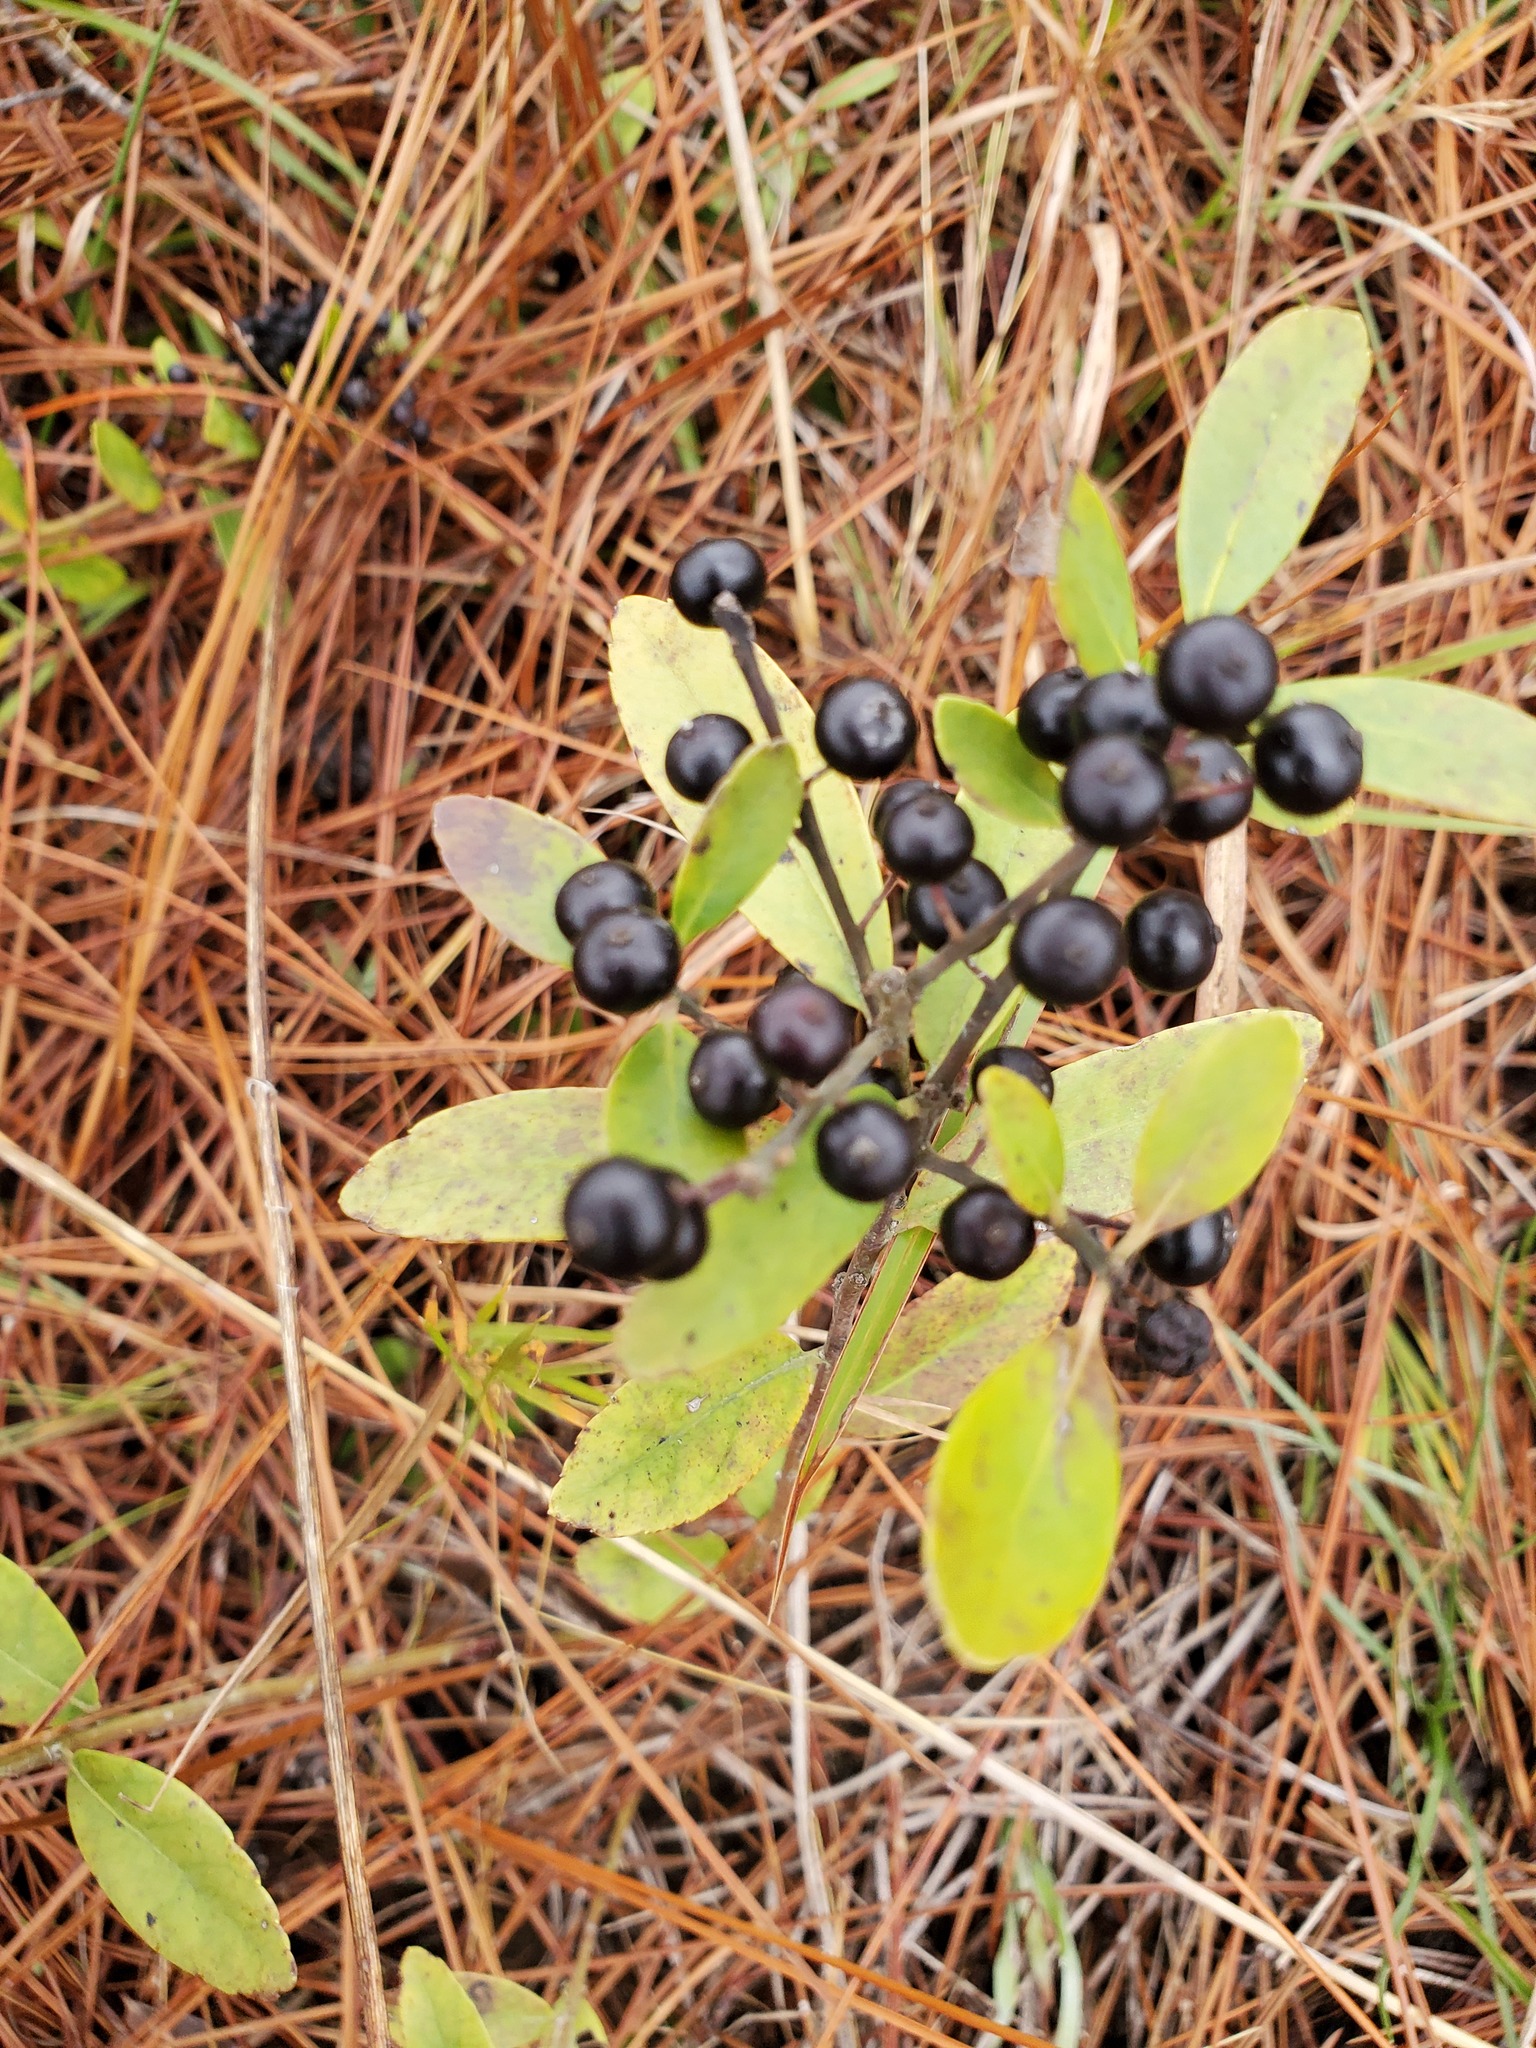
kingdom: Plantae
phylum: Tracheophyta
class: Magnoliopsida
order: Aquifoliales
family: Aquifoliaceae
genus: Ilex
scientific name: Ilex glabra
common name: Bitter gallberry
